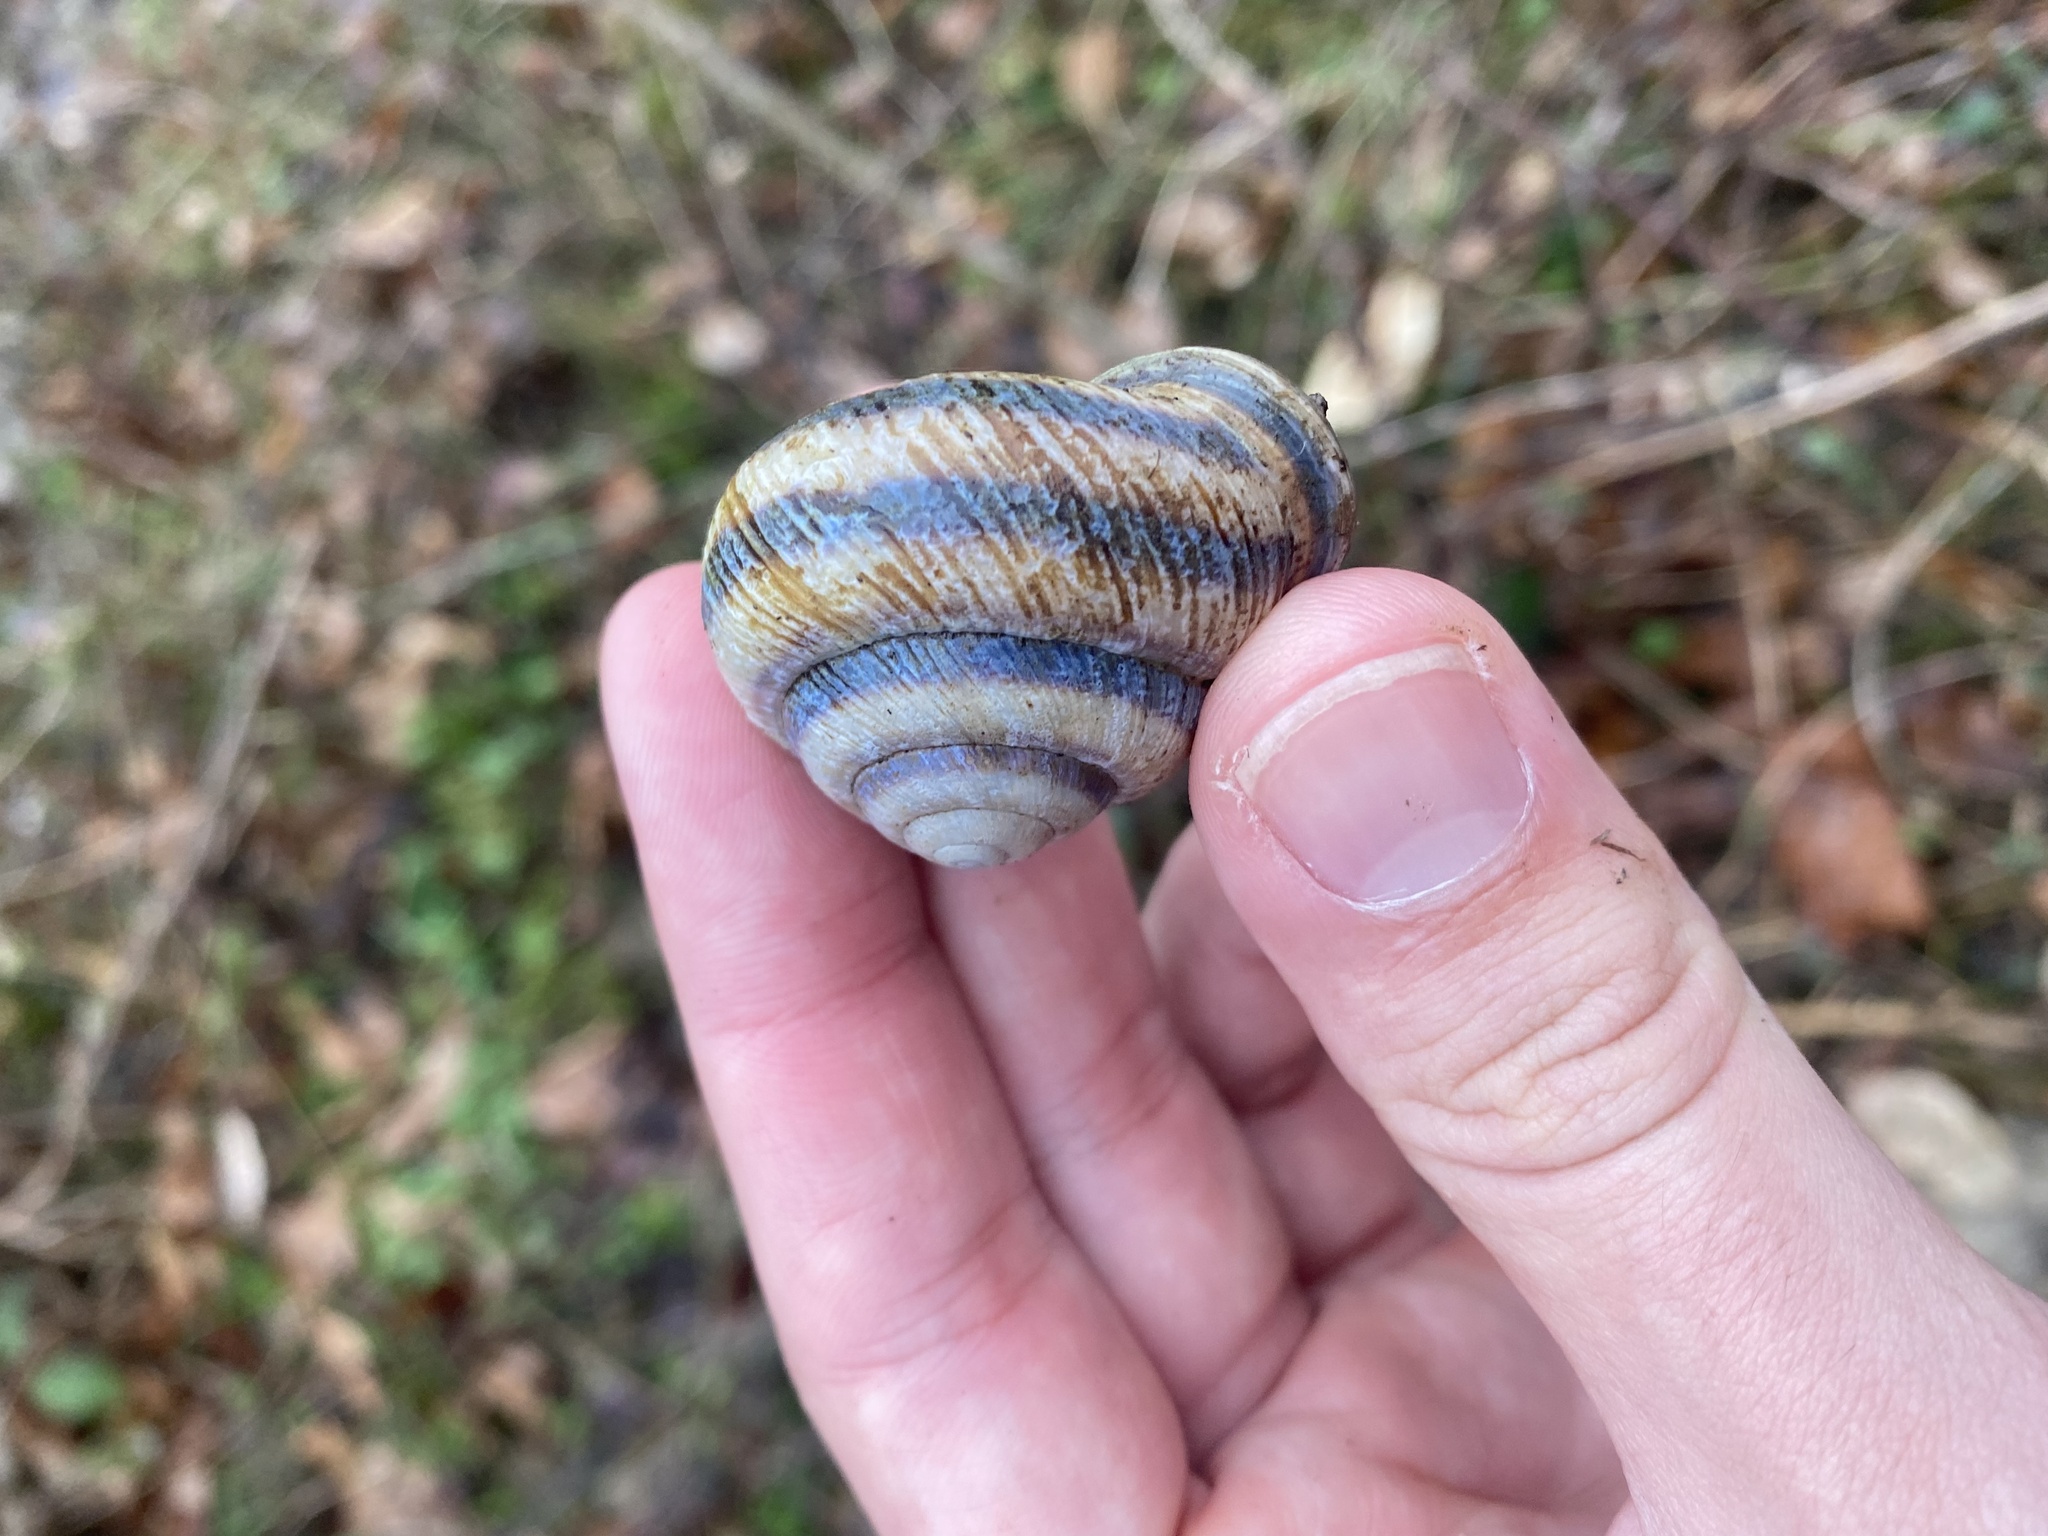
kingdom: Animalia
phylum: Mollusca
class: Gastropoda
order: Stylommatophora
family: Helicidae
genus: Caucasotachea
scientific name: Caucasotachea atrolabiata
